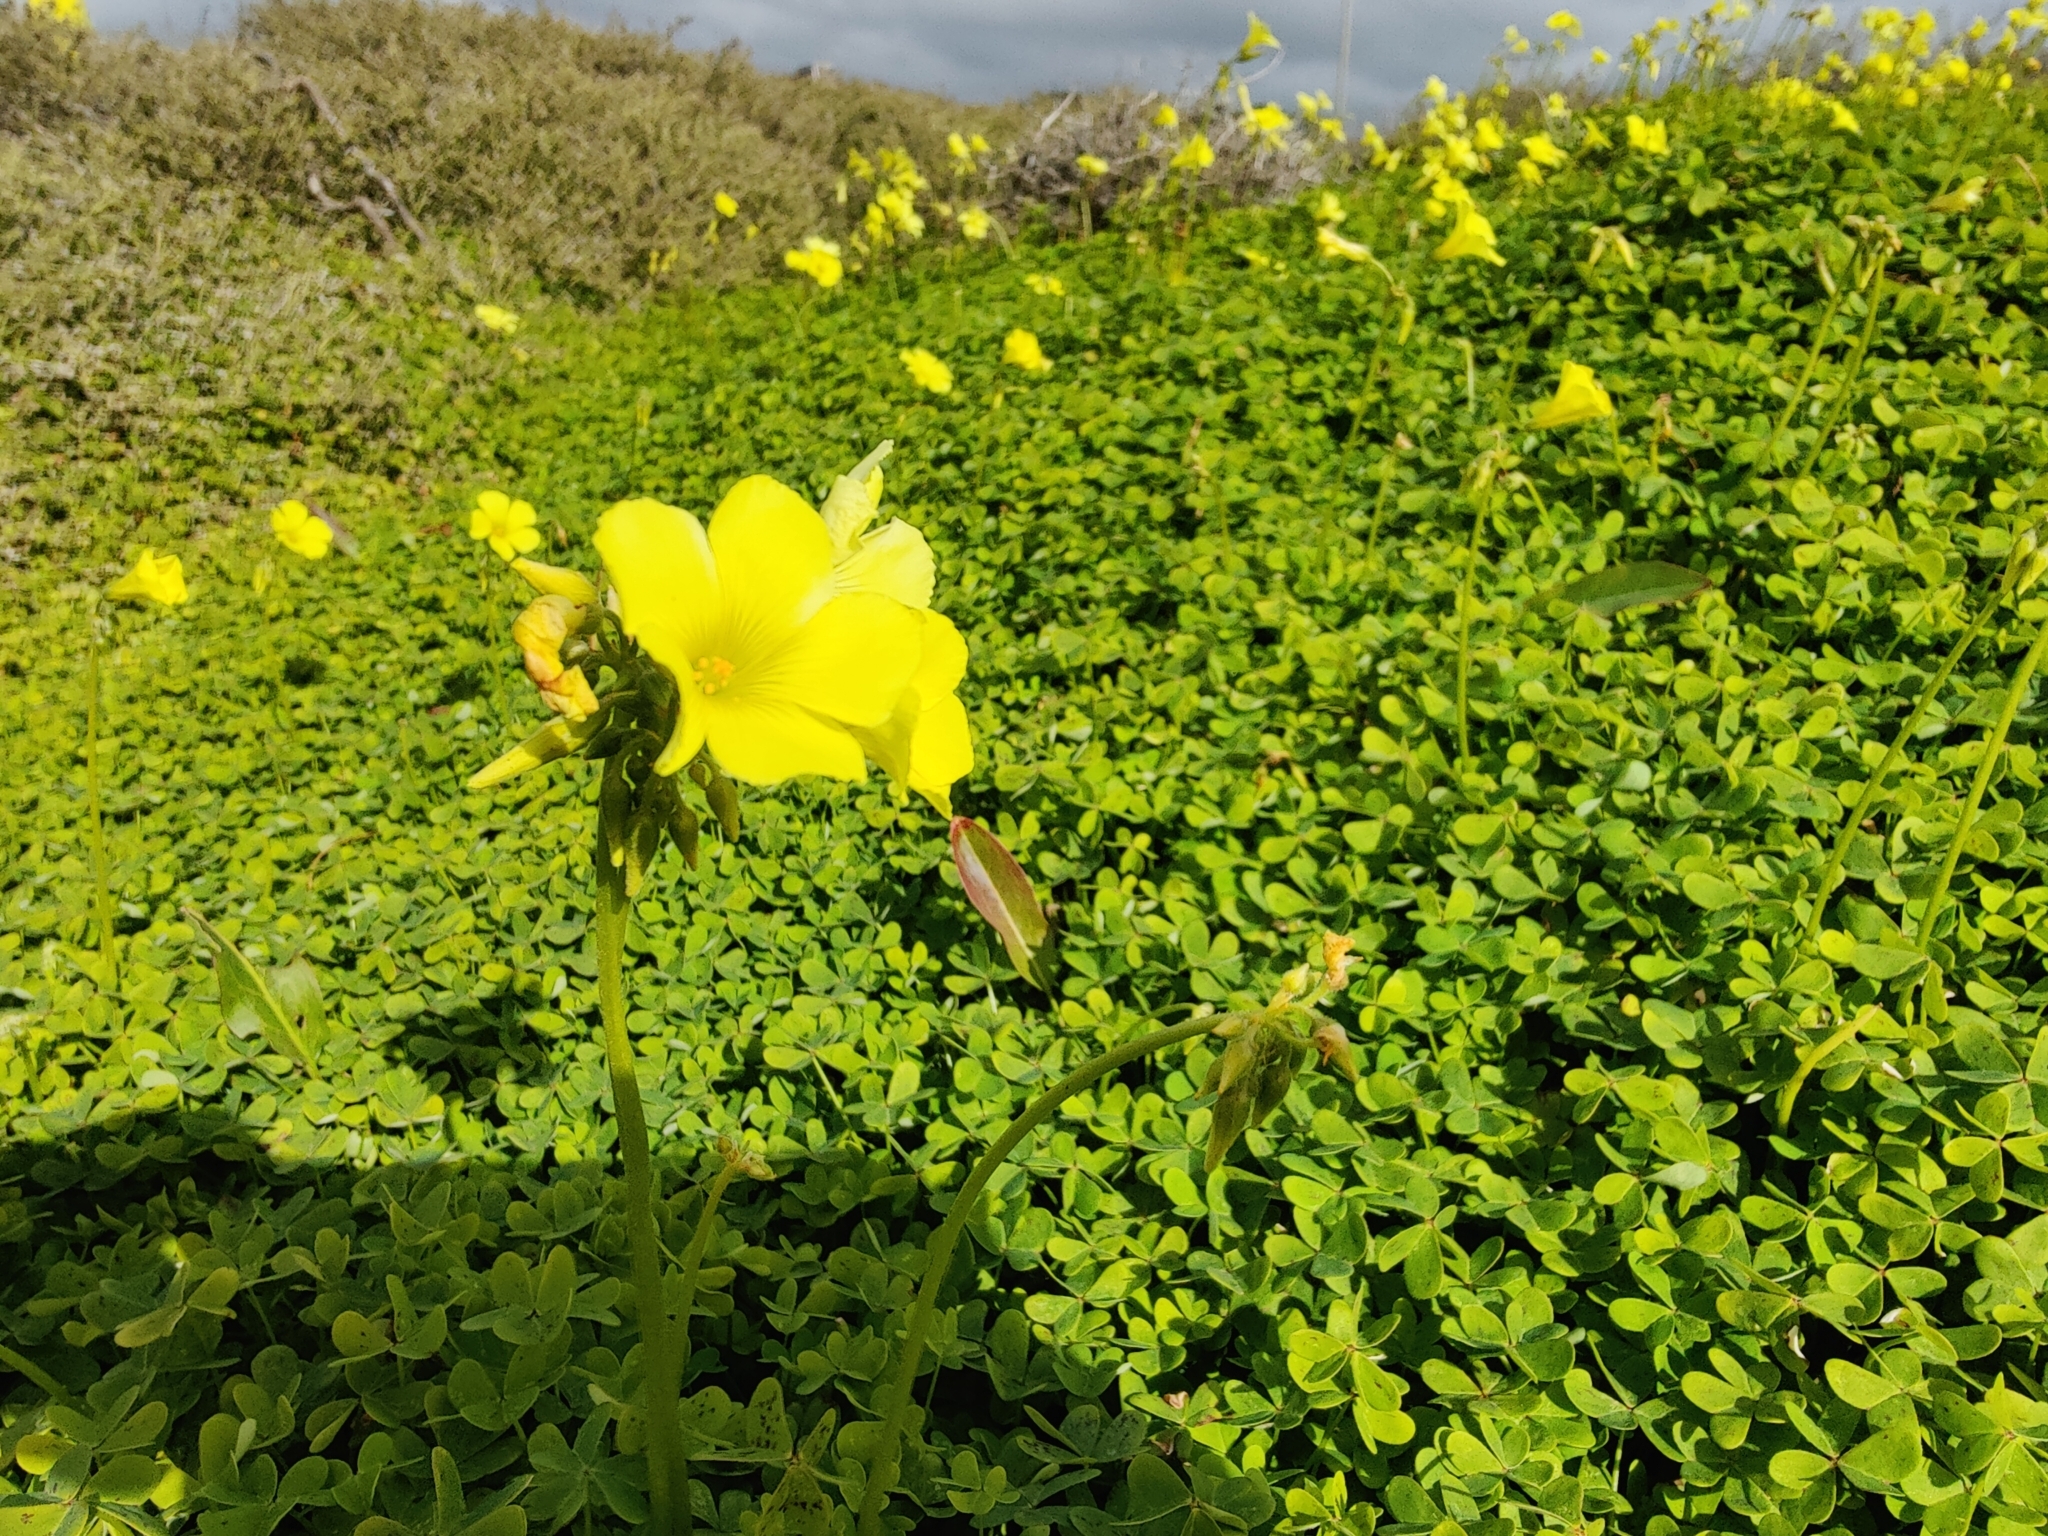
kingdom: Plantae
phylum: Tracheophyta
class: Magnoliopsida
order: Oxalidales
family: Oxalidaceae
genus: Oxalis
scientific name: Oxalis pes-caprae
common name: Bermuda-buttercup
